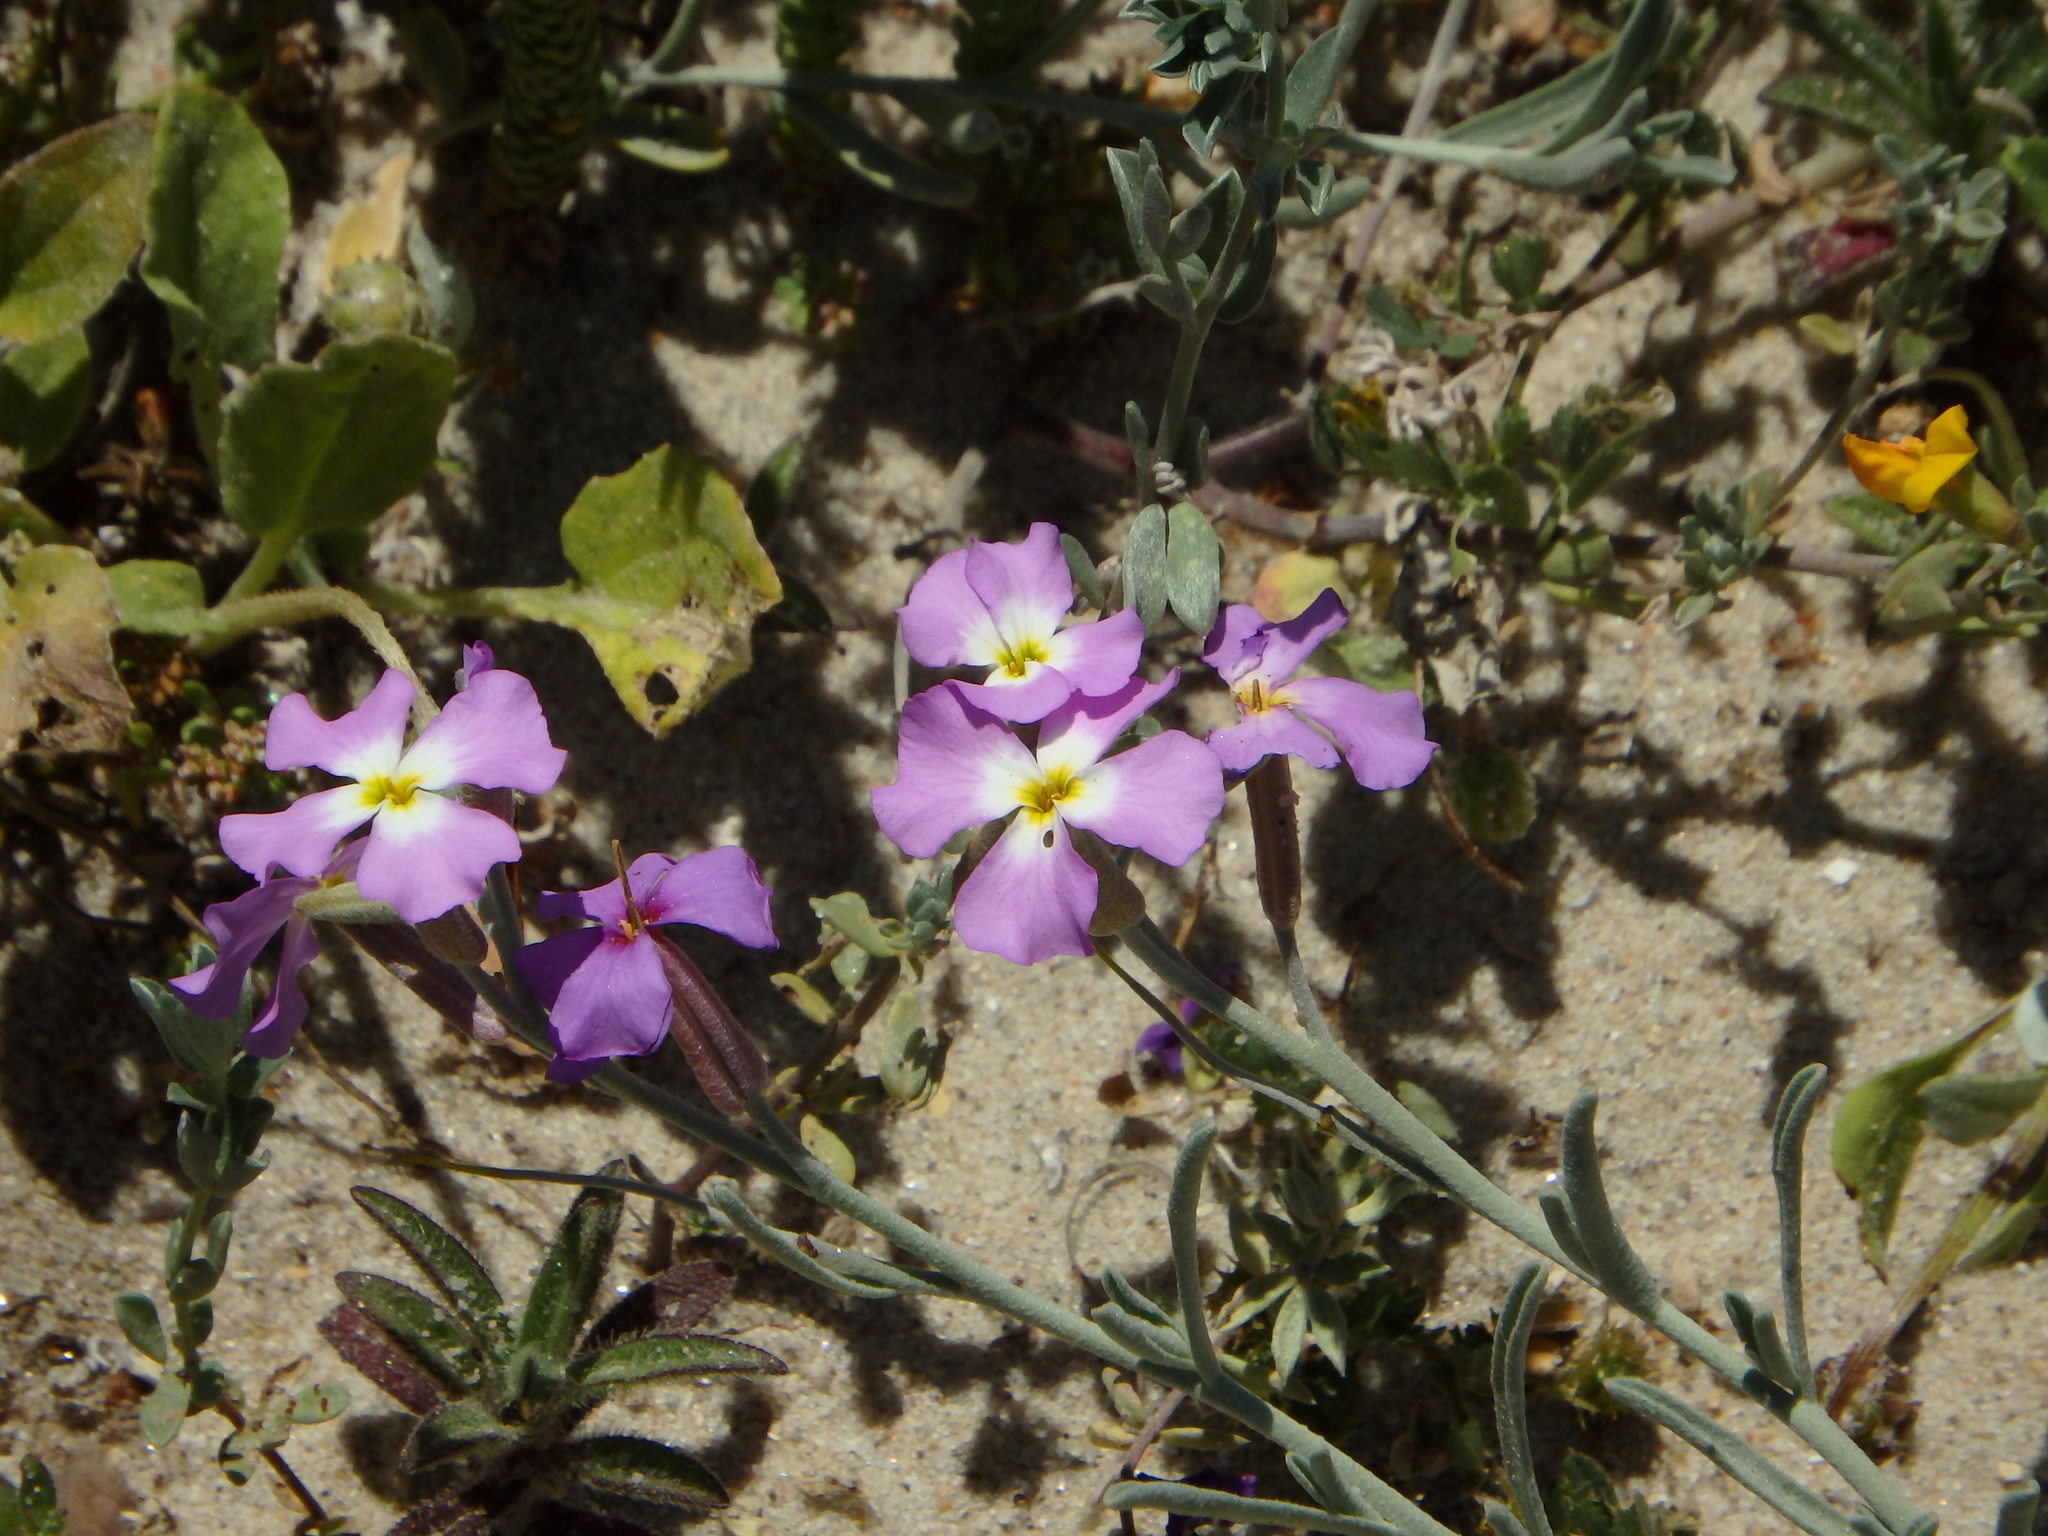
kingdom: Plantae
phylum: Tracheophyta
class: Magnoliopsida
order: Brassicales
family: Brassicaceae
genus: Marcuskochia
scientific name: Marcuskochia littorea
